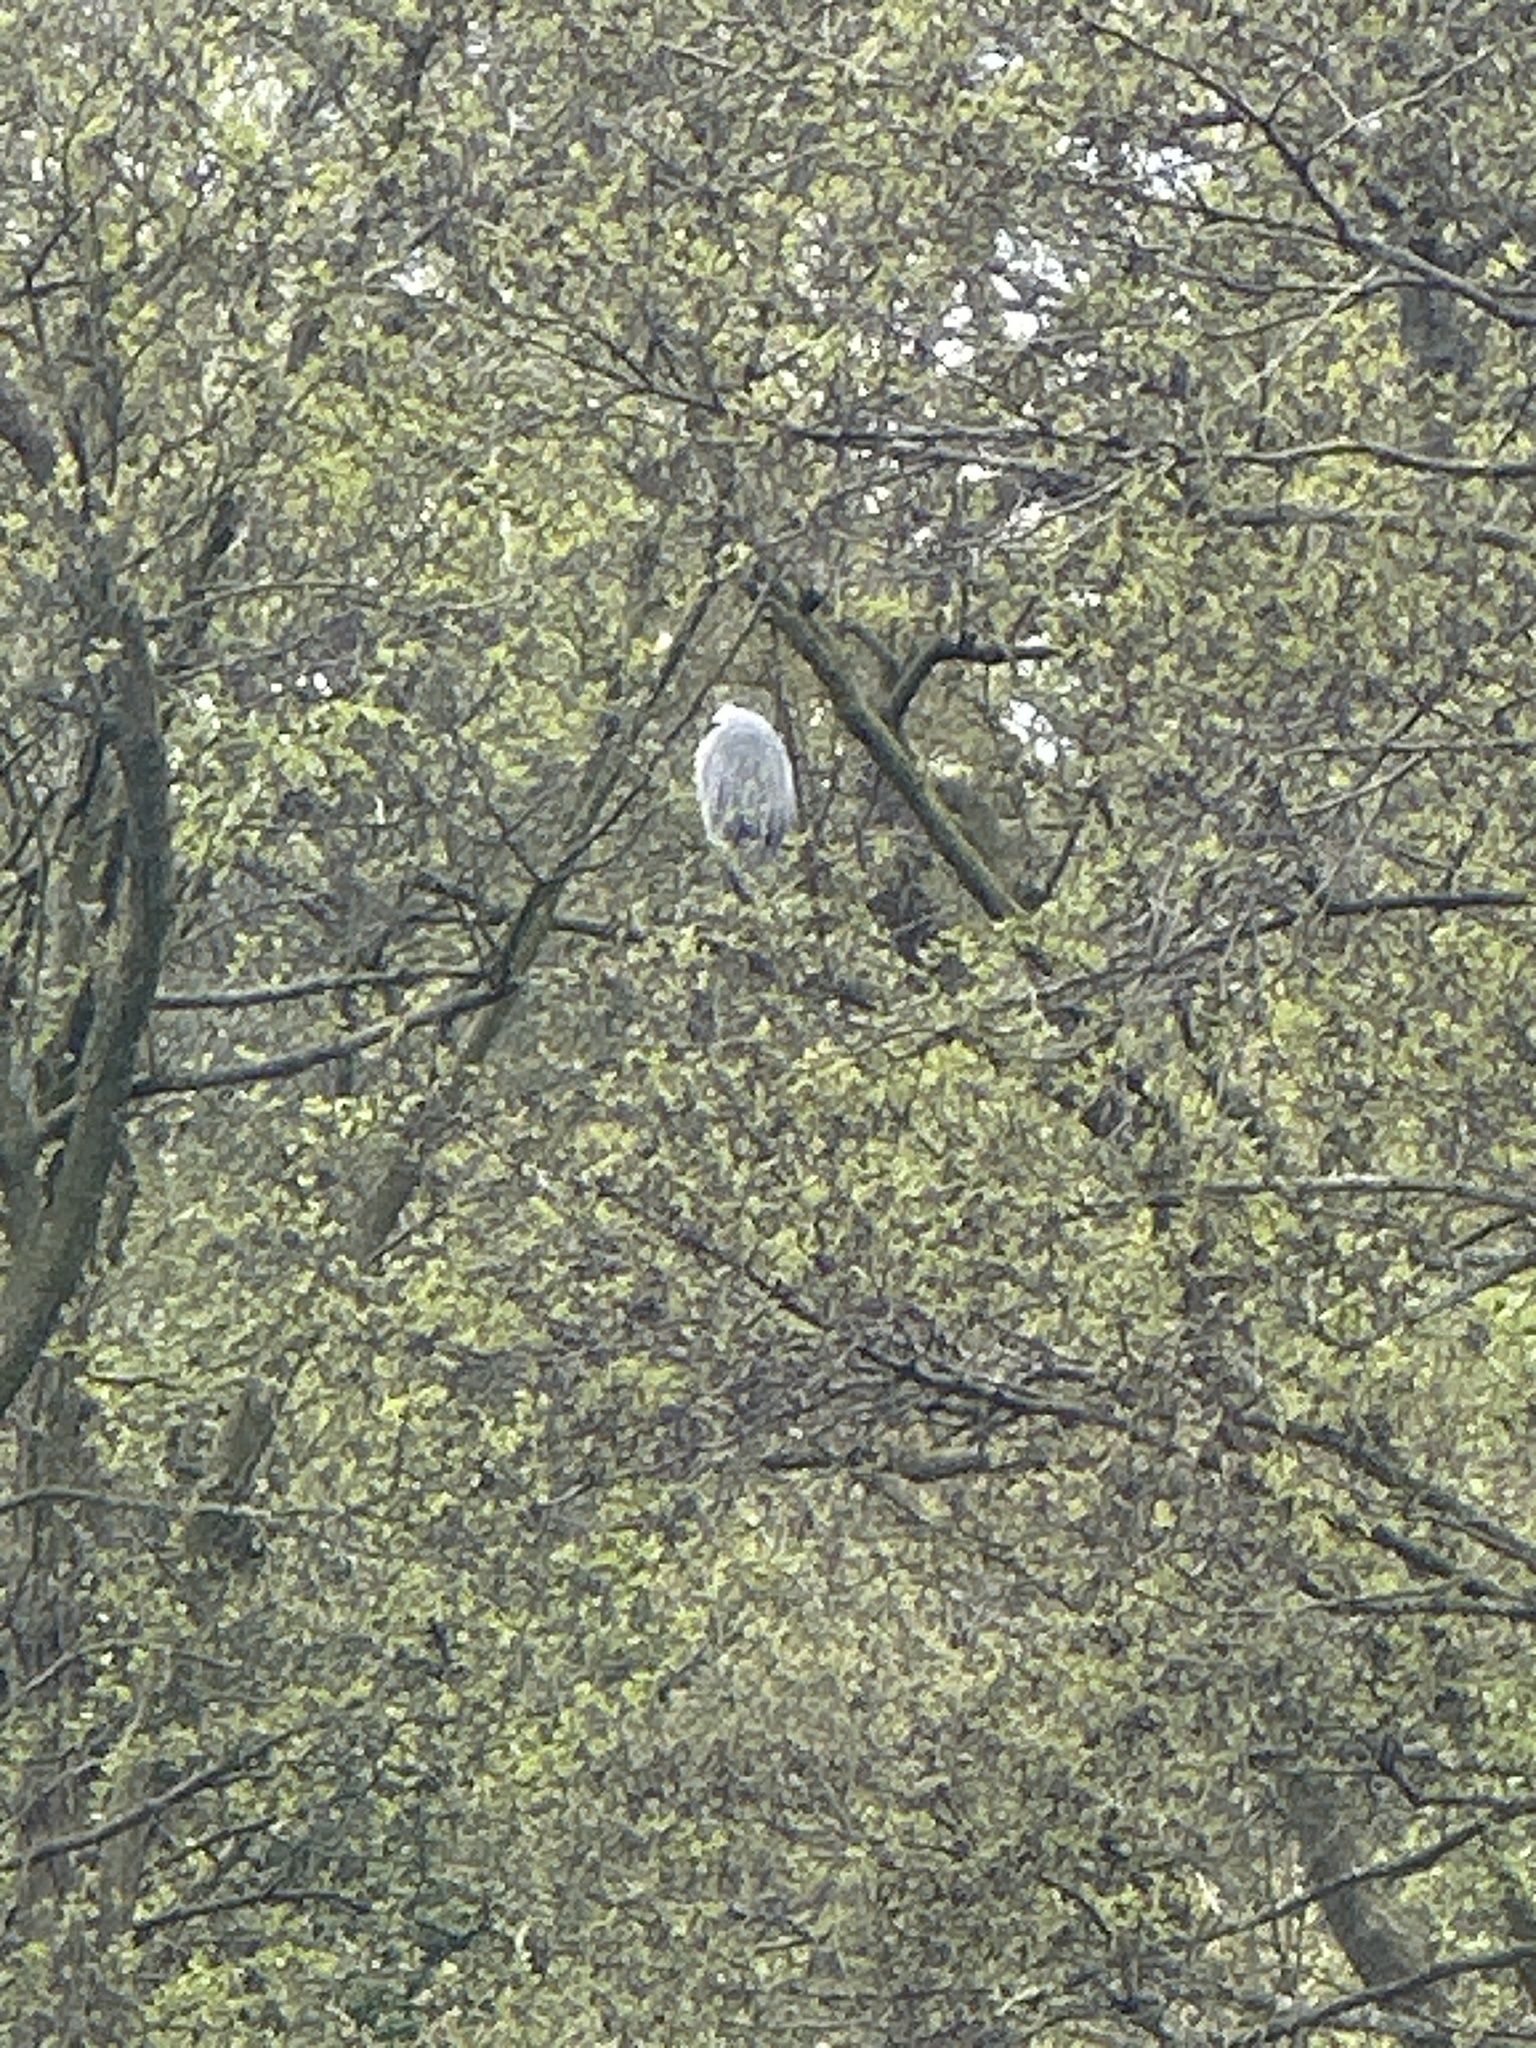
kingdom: Animalia
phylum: Chordata
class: Aves
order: Pelecaniformes
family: Ardeidae
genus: Ardea
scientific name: Ardea cinerea
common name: Grey heron
